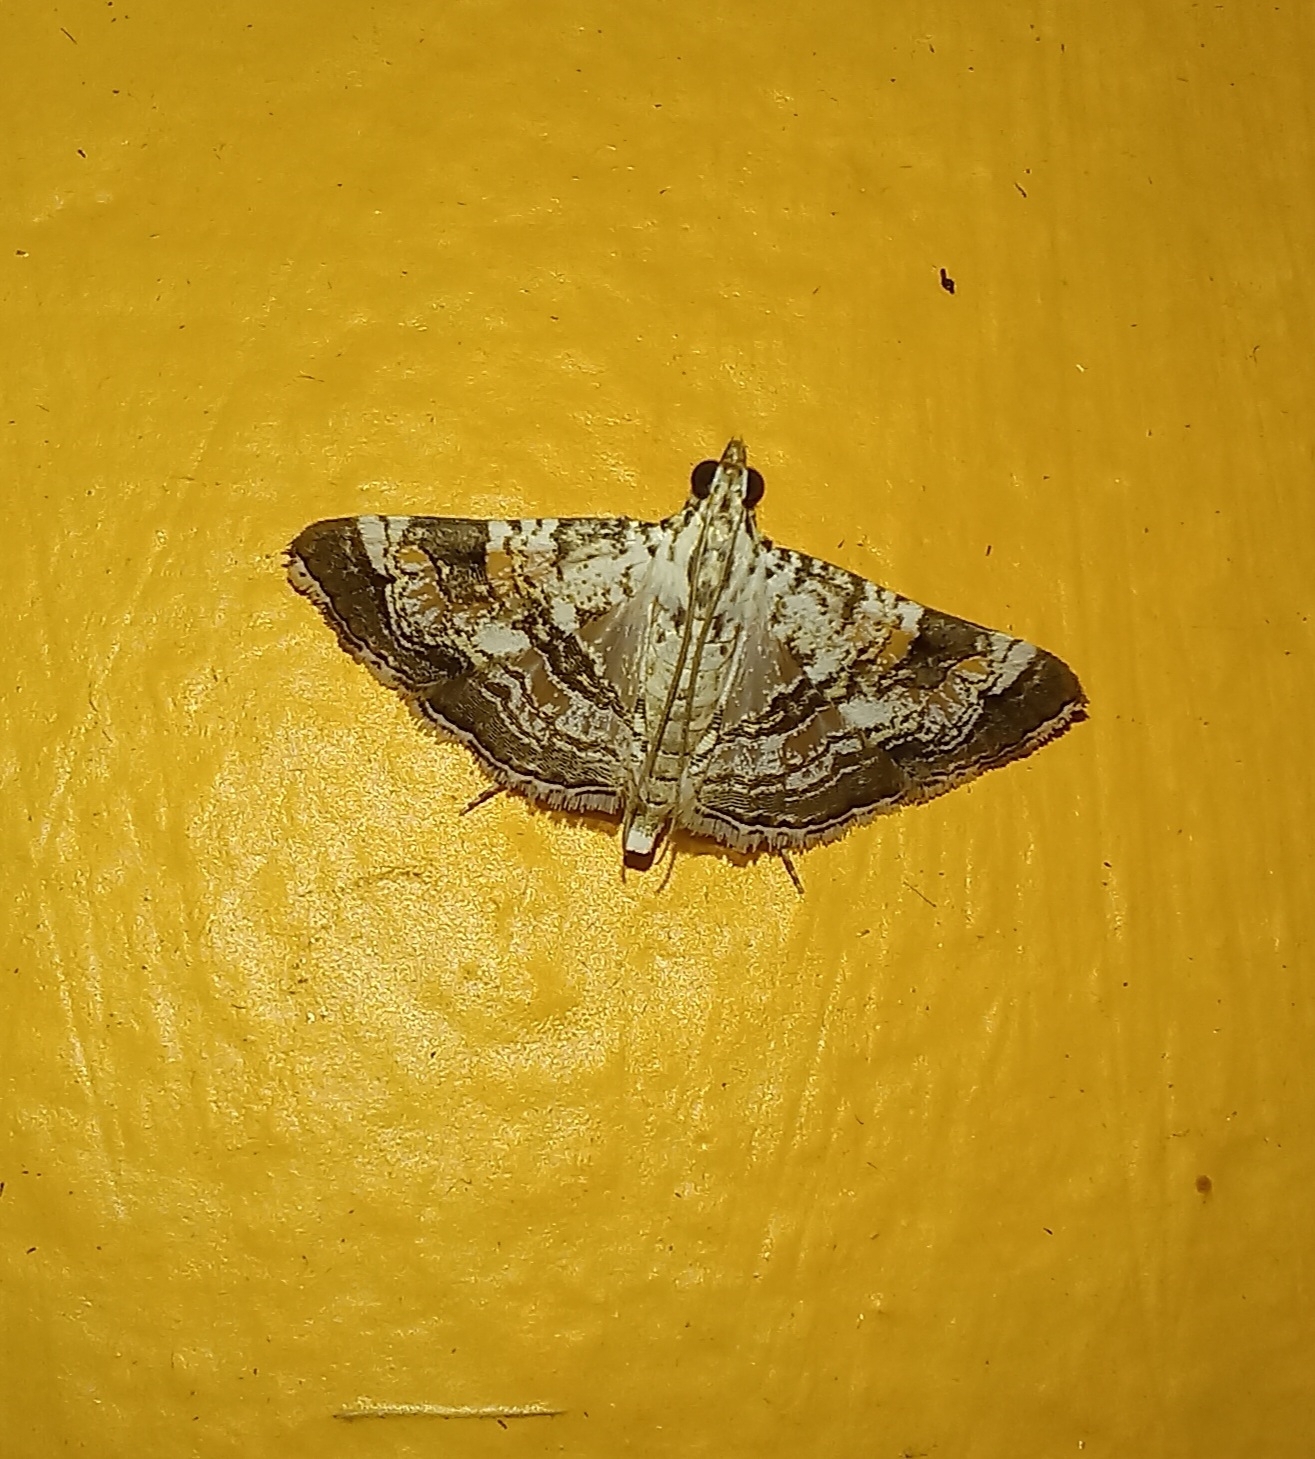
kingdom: Animalia
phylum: Arthropoda
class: Insecta
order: Lepidoptera
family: Crambidae
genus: Glyphodes
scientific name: Glyphodes amphipeda
